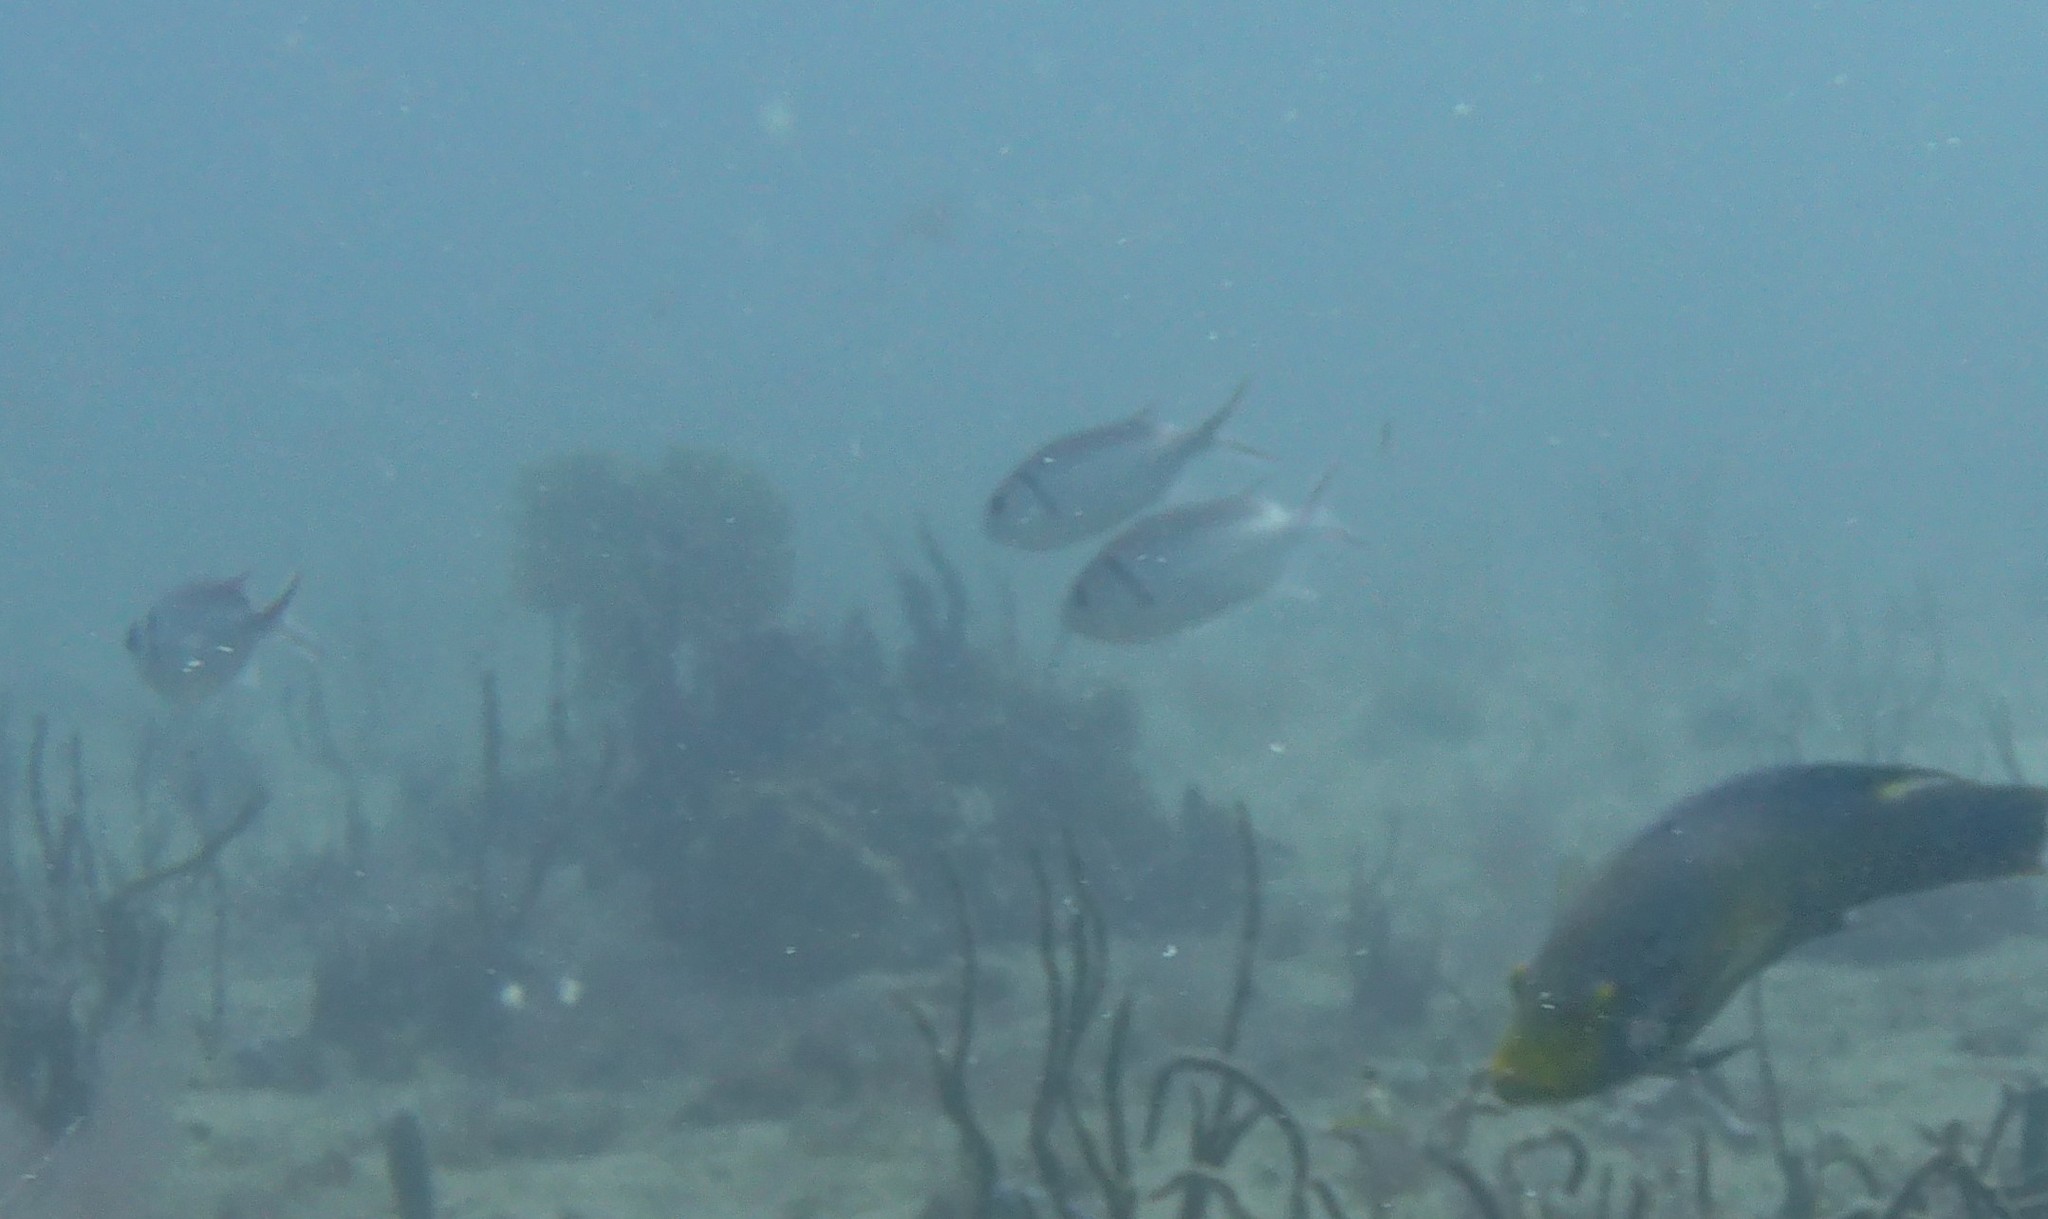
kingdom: Animalia
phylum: Chordata
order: Beryciformes
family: Holocentridae
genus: Myripristis
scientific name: Myripristis jacobus
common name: Blackbar soldierfish
